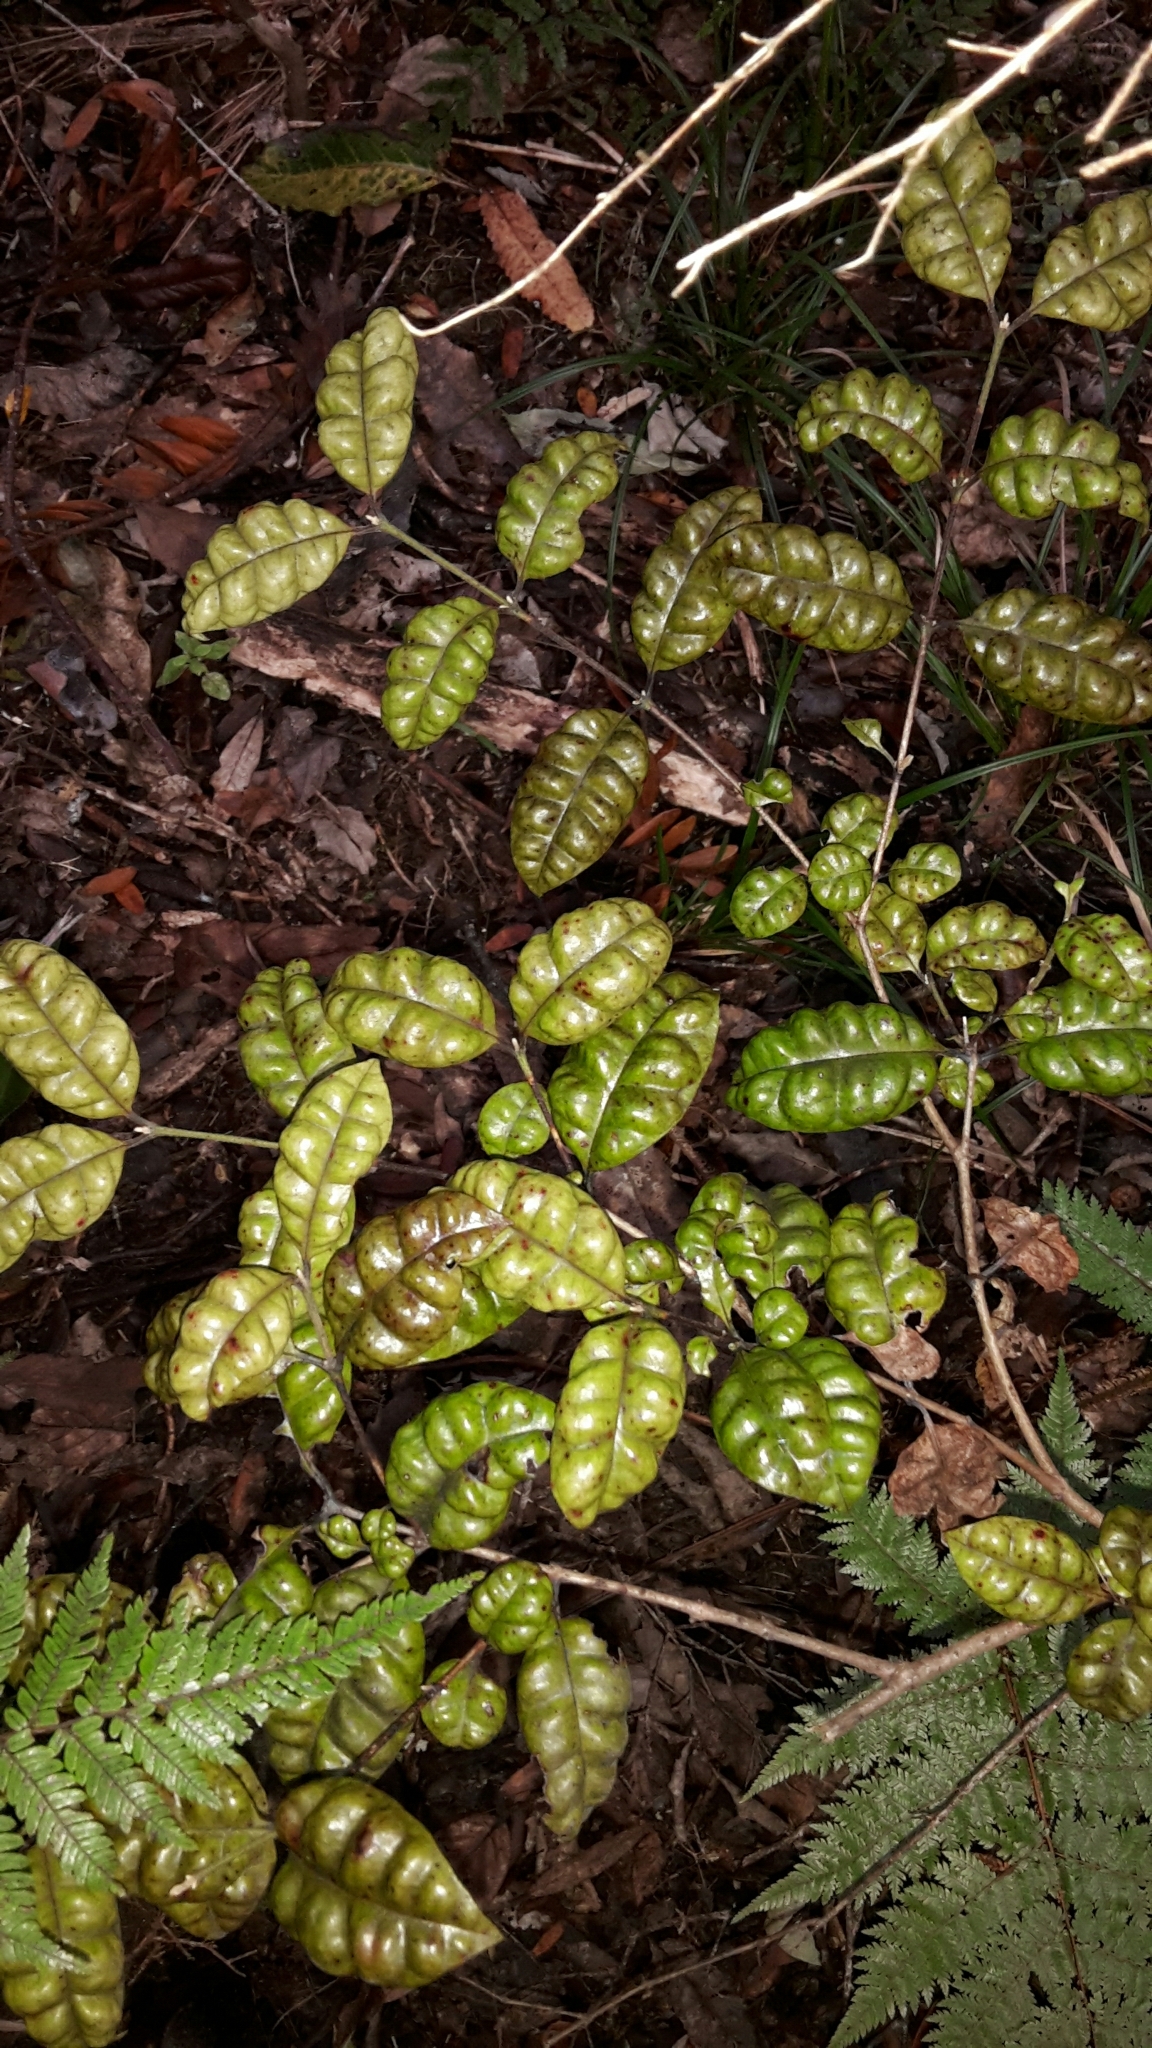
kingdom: Plantae
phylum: Tracheophyta
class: Magnoliopsida
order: Myrtales
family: Myrtaceae
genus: Lophomyrtus
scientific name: Lophomyrtus bullata
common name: Rama rama
